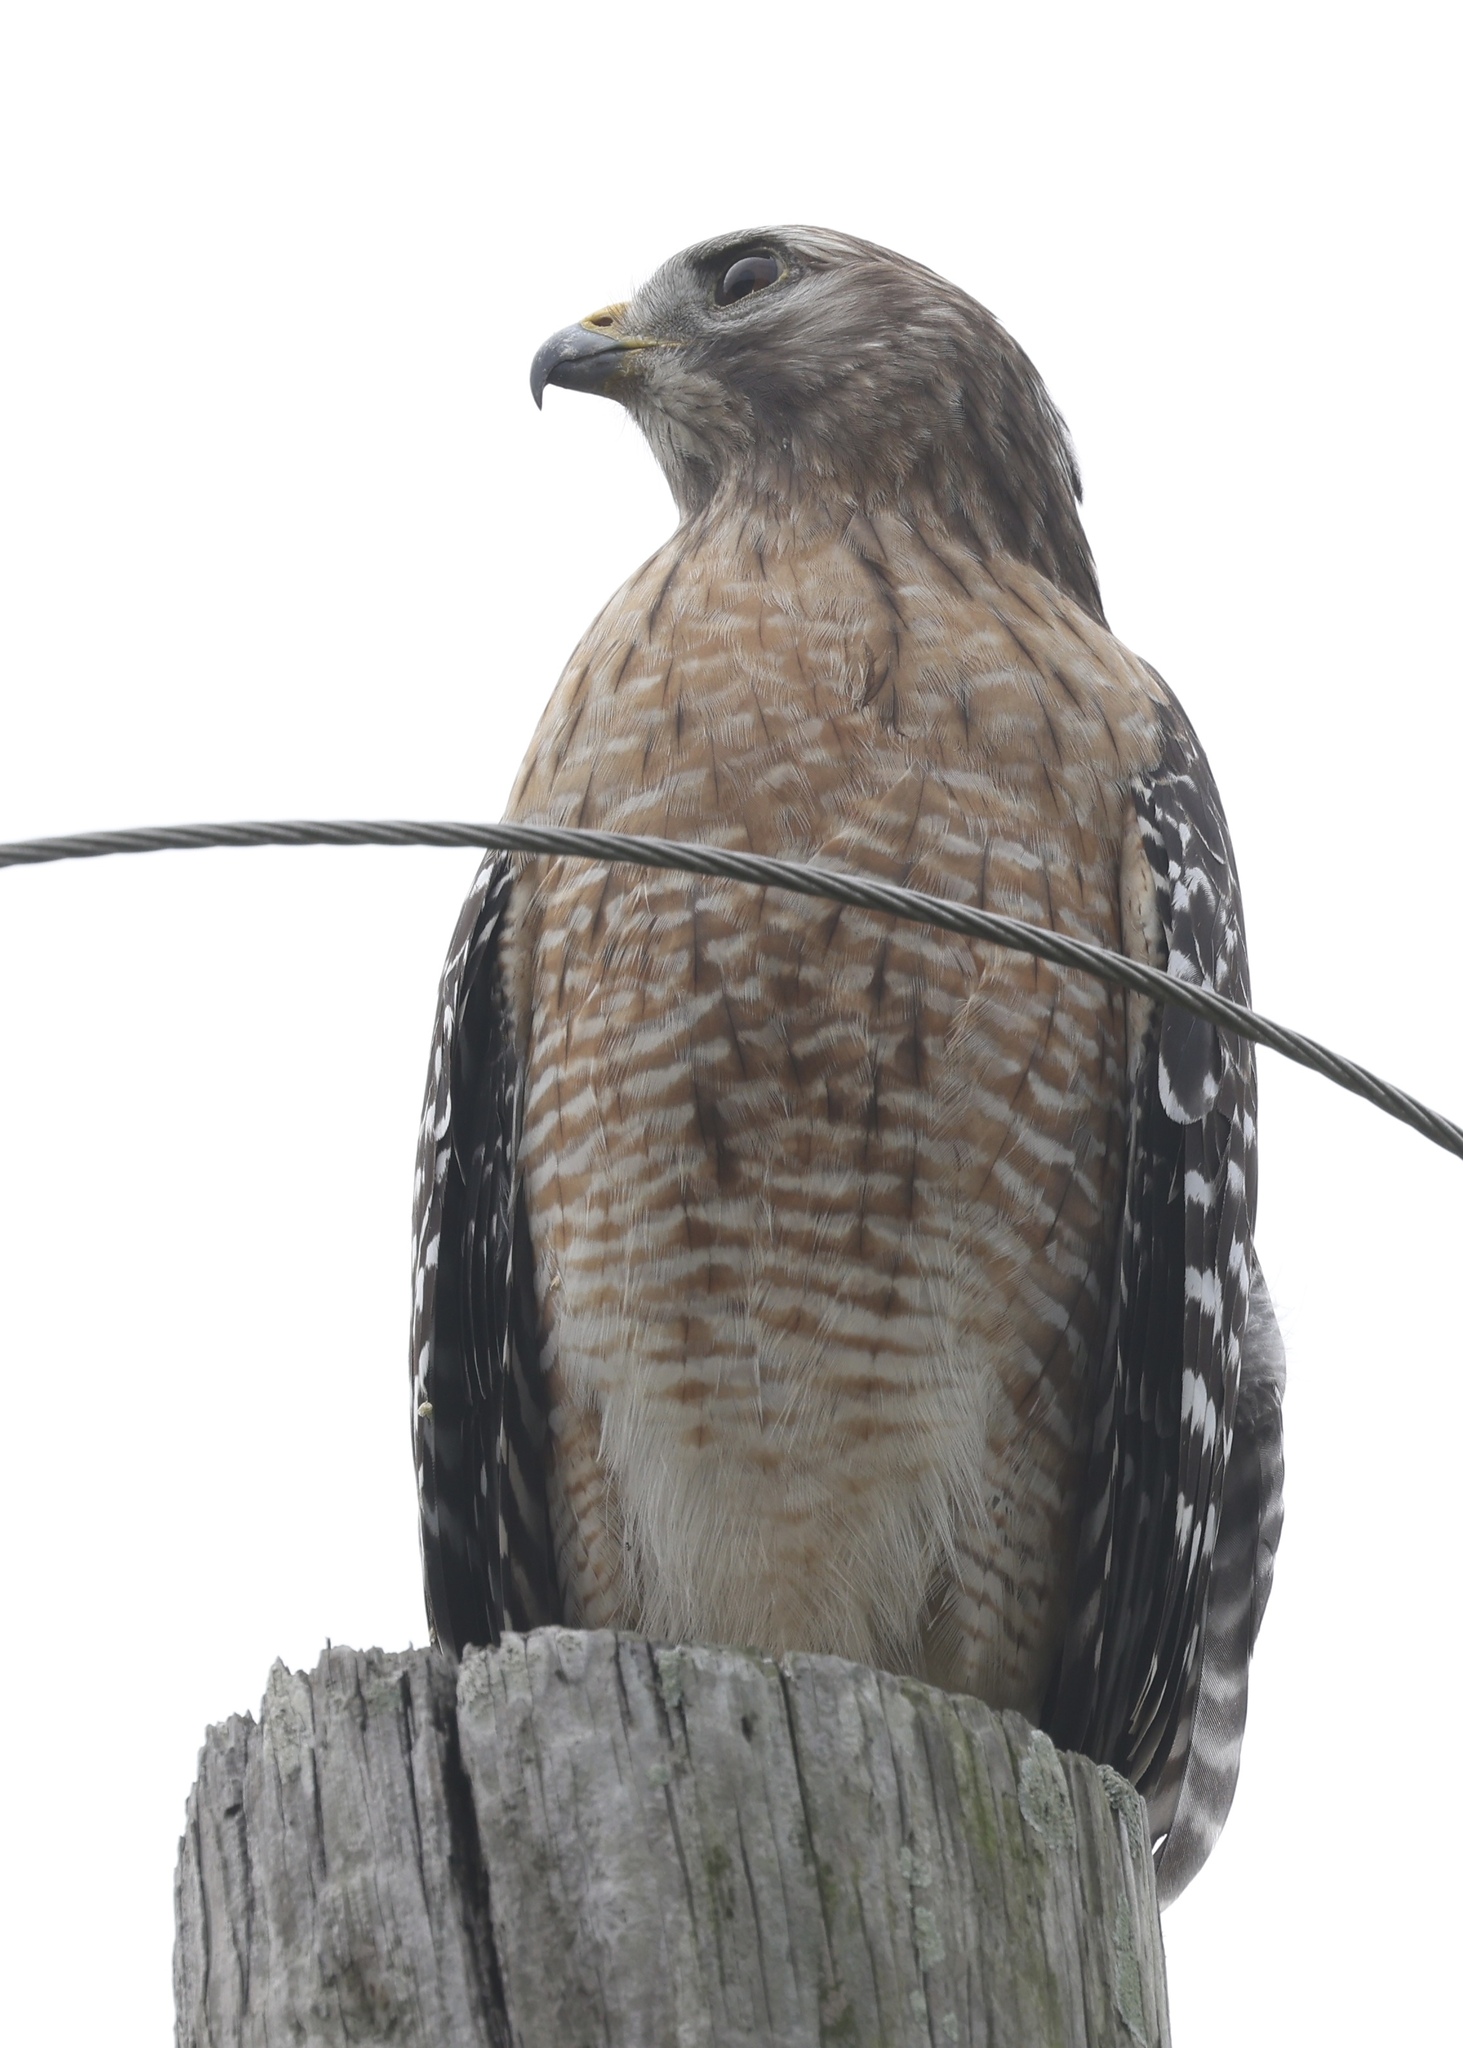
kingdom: Animalia
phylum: Chordata
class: Aves
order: Accipitriformes
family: Accipitridae
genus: Buteo
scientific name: Buteo lineatus
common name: Red-shouldered hawk
